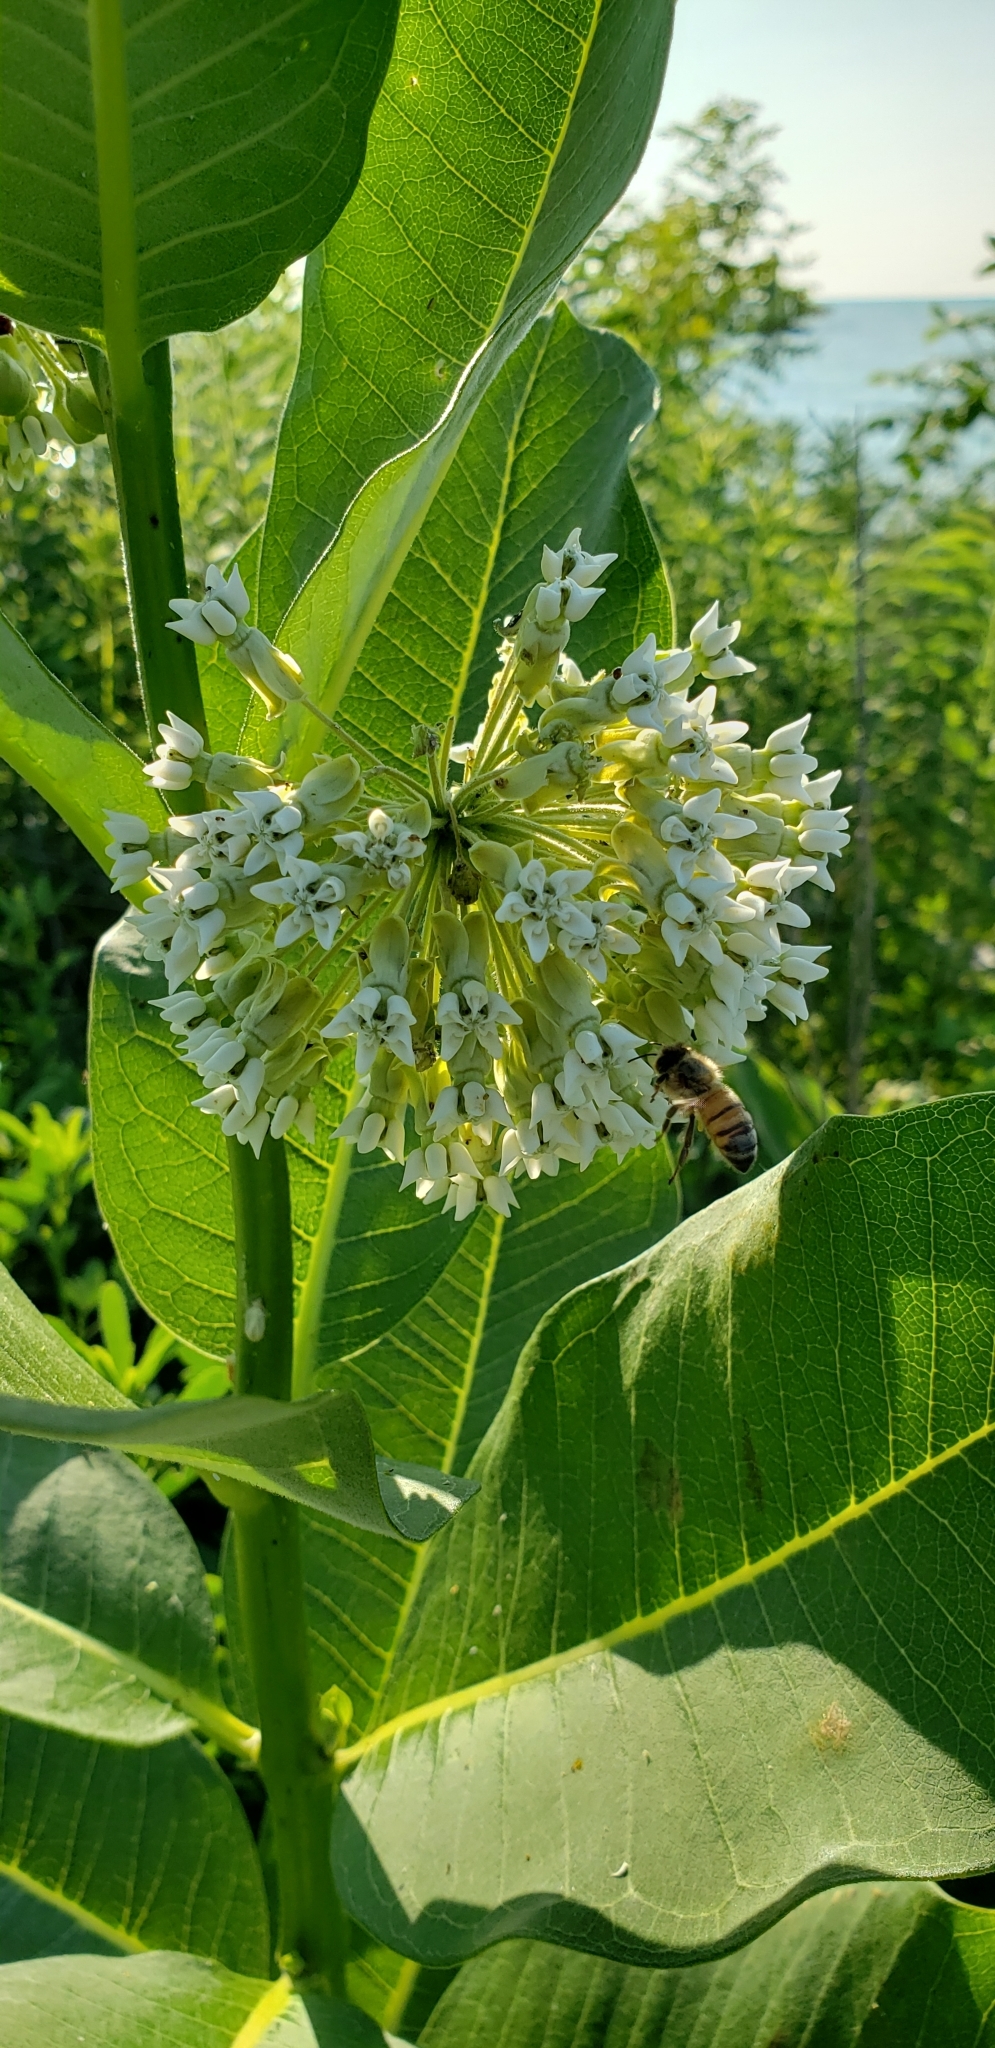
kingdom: Plantae
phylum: Tracheophyta
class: Magnoliopsida
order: Gentianales
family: Apocynaceae
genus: Asclepias
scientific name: Asclepias syriaca
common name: Common milkweed
